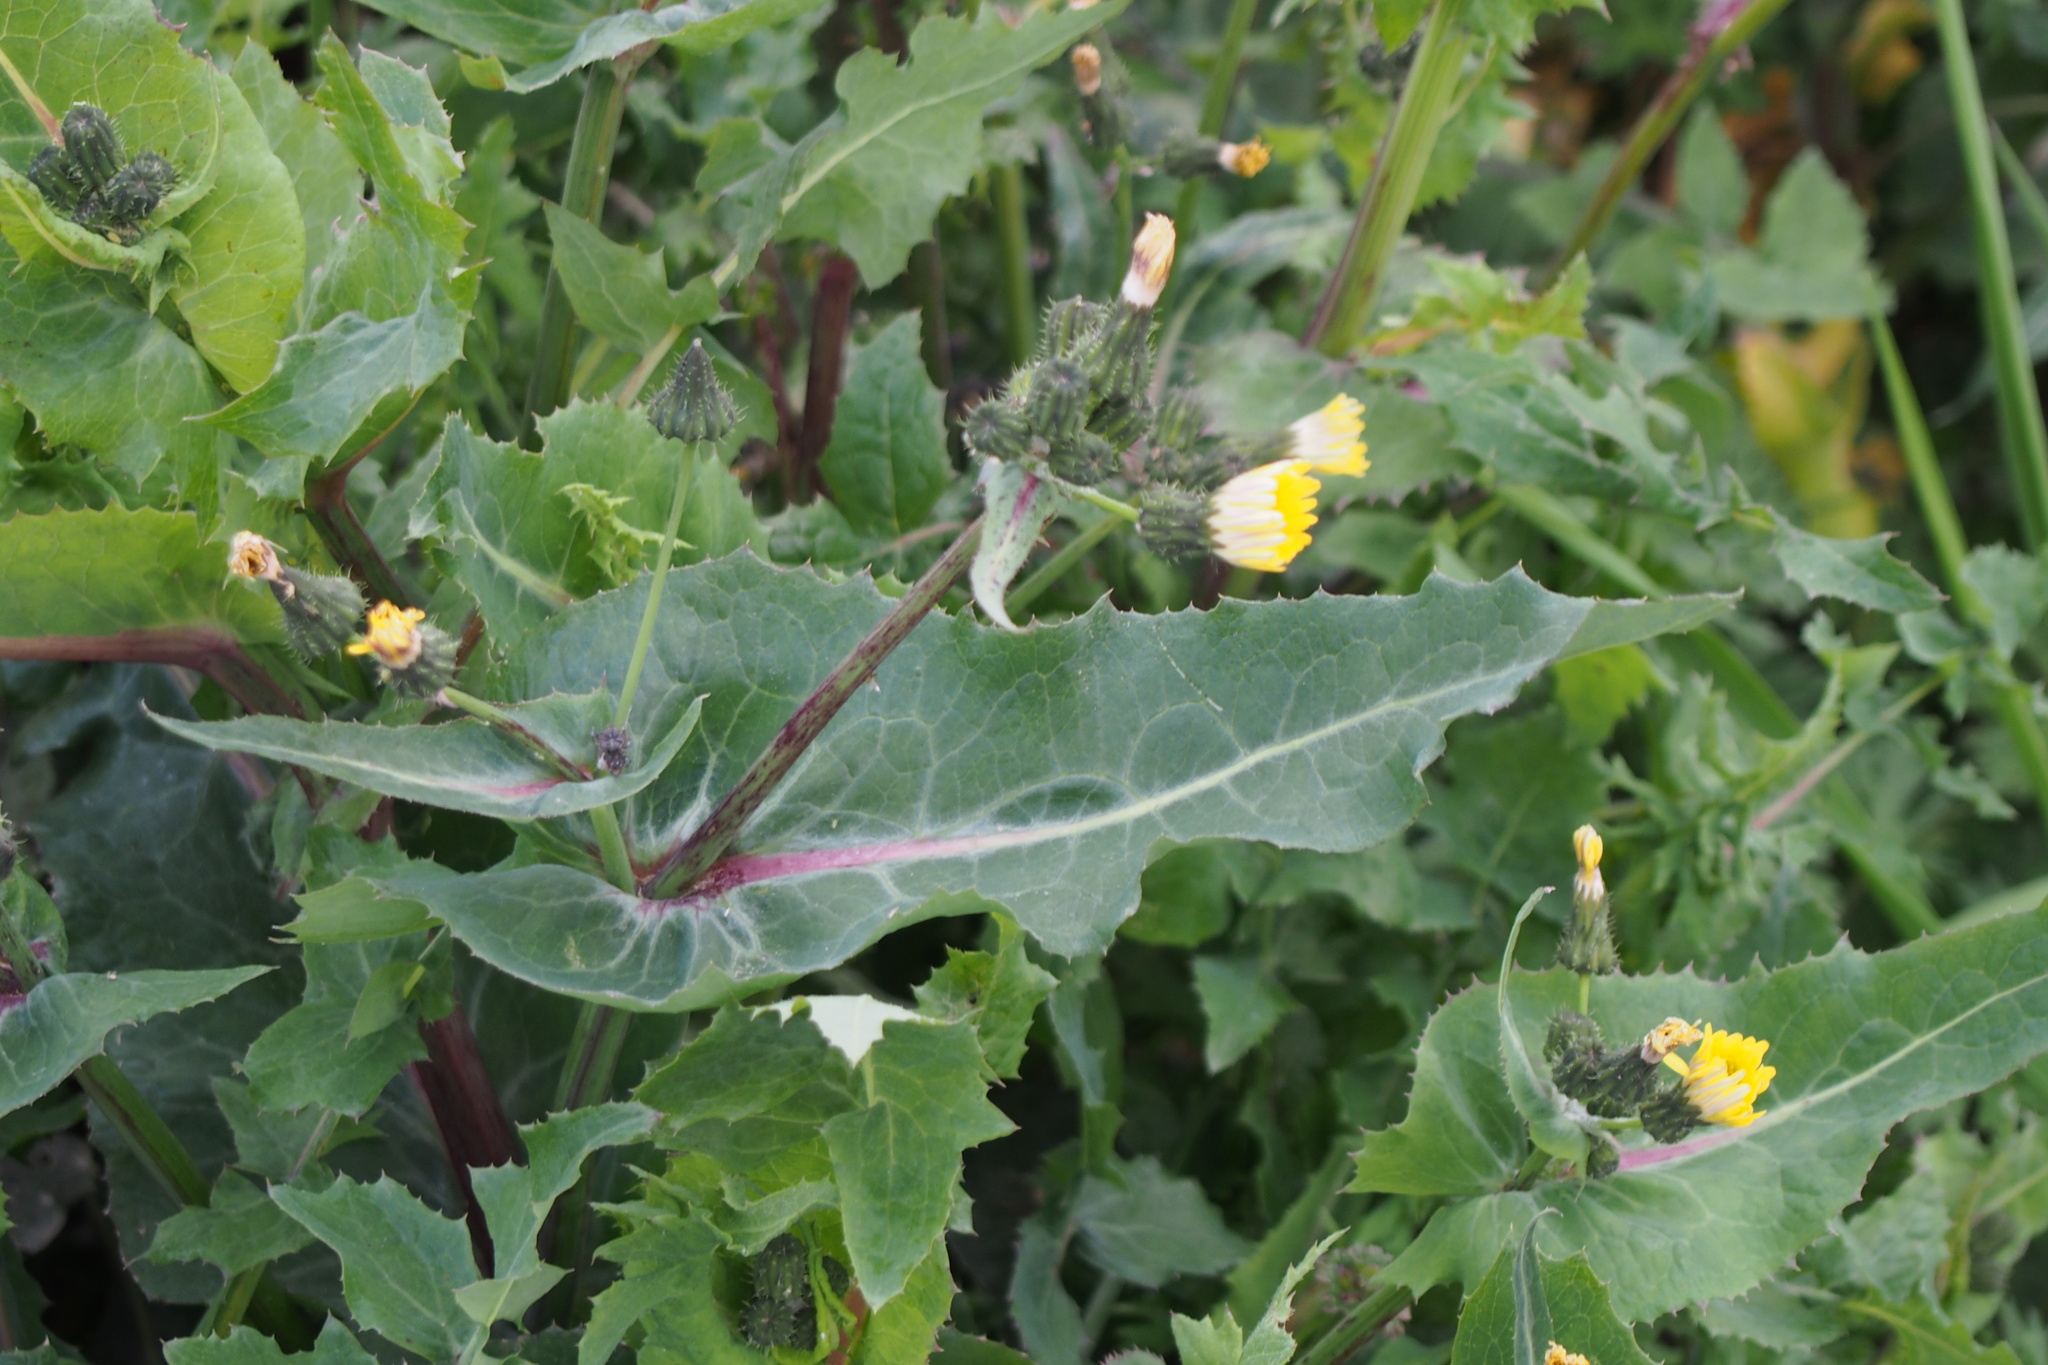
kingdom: Plantae
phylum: Tracheophyta
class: Magnoliopsida
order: Asterales
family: Asteraceae
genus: Sonchus
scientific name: Sonchus oleraceus
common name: Common sowthistle
